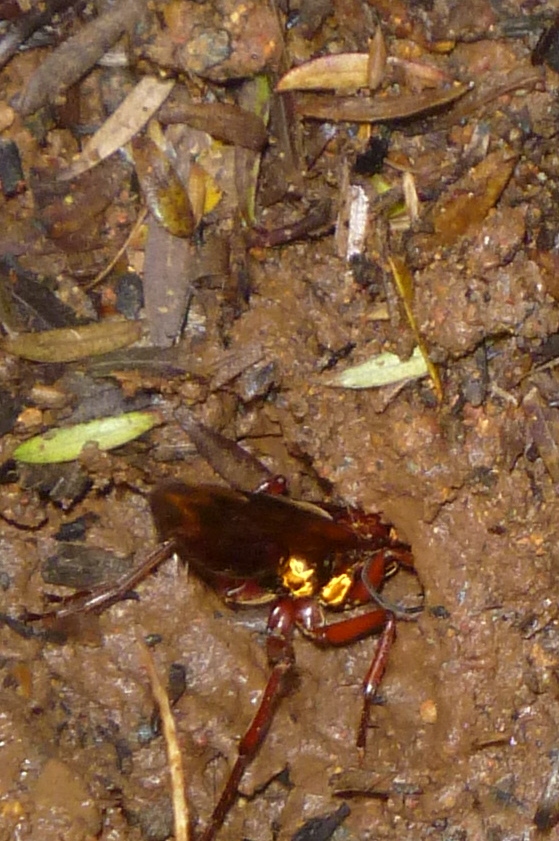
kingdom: Animalia
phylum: Arthropoda
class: Insecta
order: Hymenoptera
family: Pompilidae
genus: Sphictostethus
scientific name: Sphictostethus nitidus
